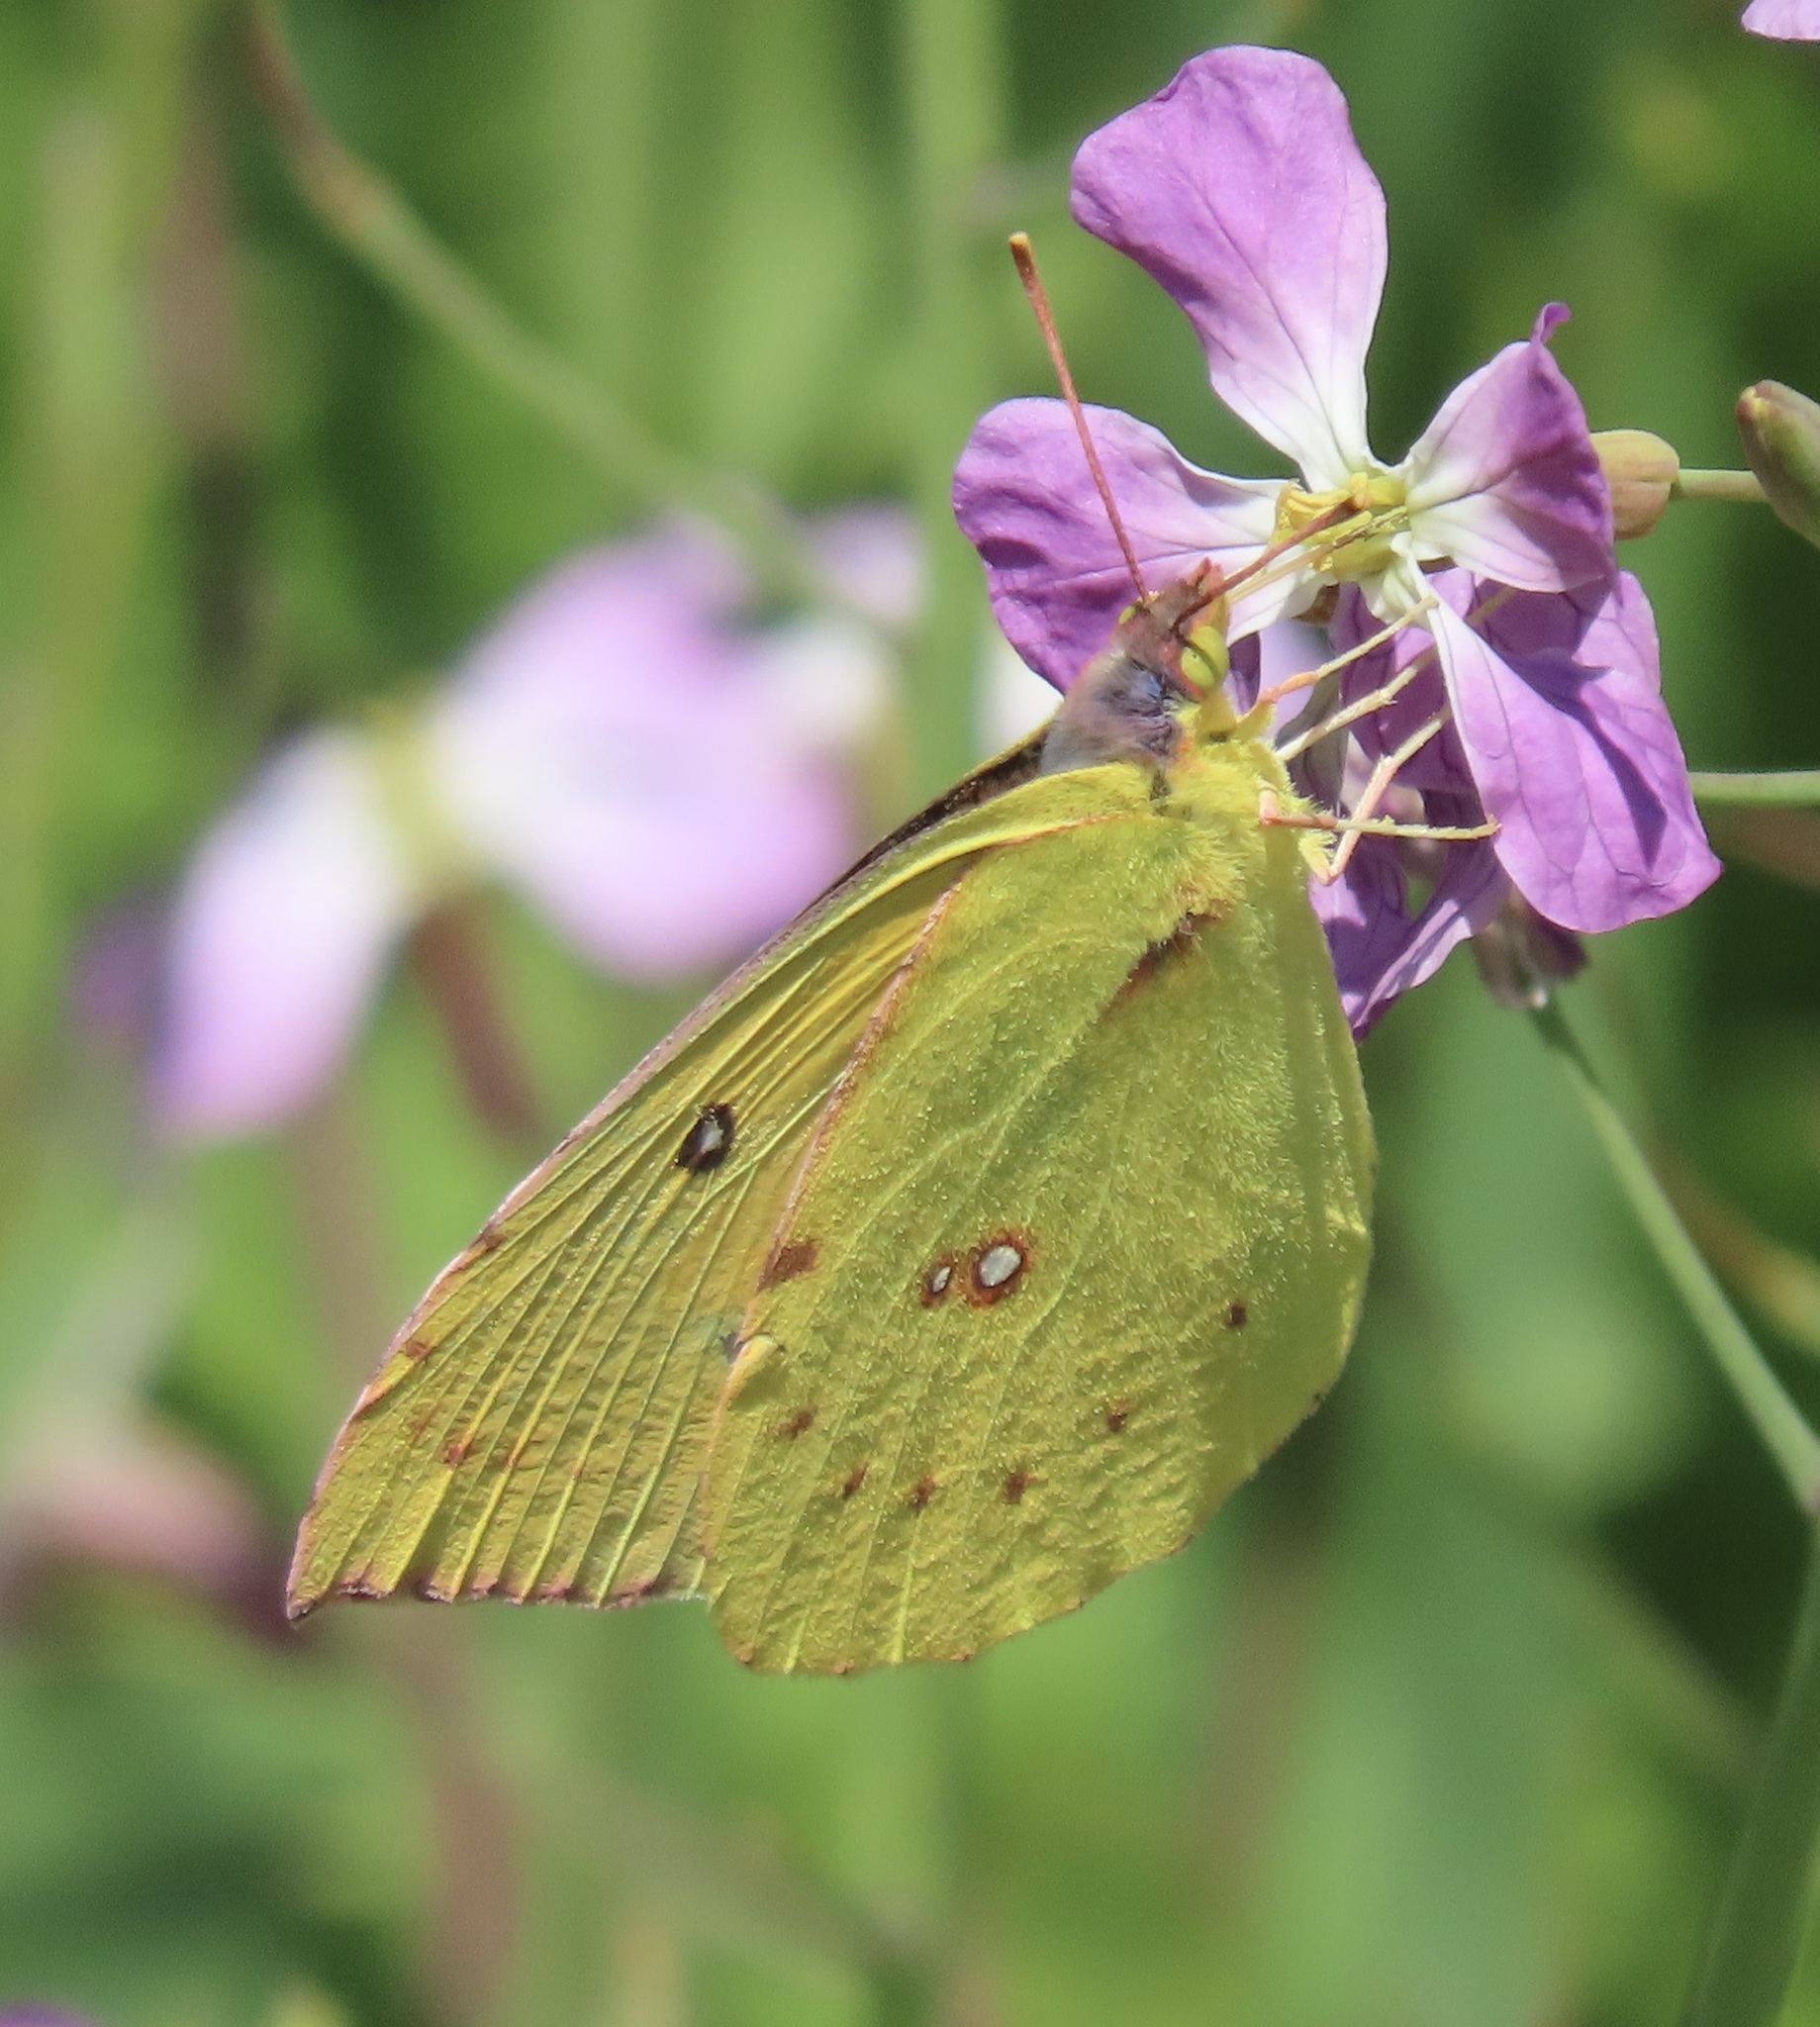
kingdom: Animalia
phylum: Arthropoda
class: Insecta
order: Lepidoptera
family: Pieridae
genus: Zerene
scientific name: Zerene eurydice
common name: California dogface
